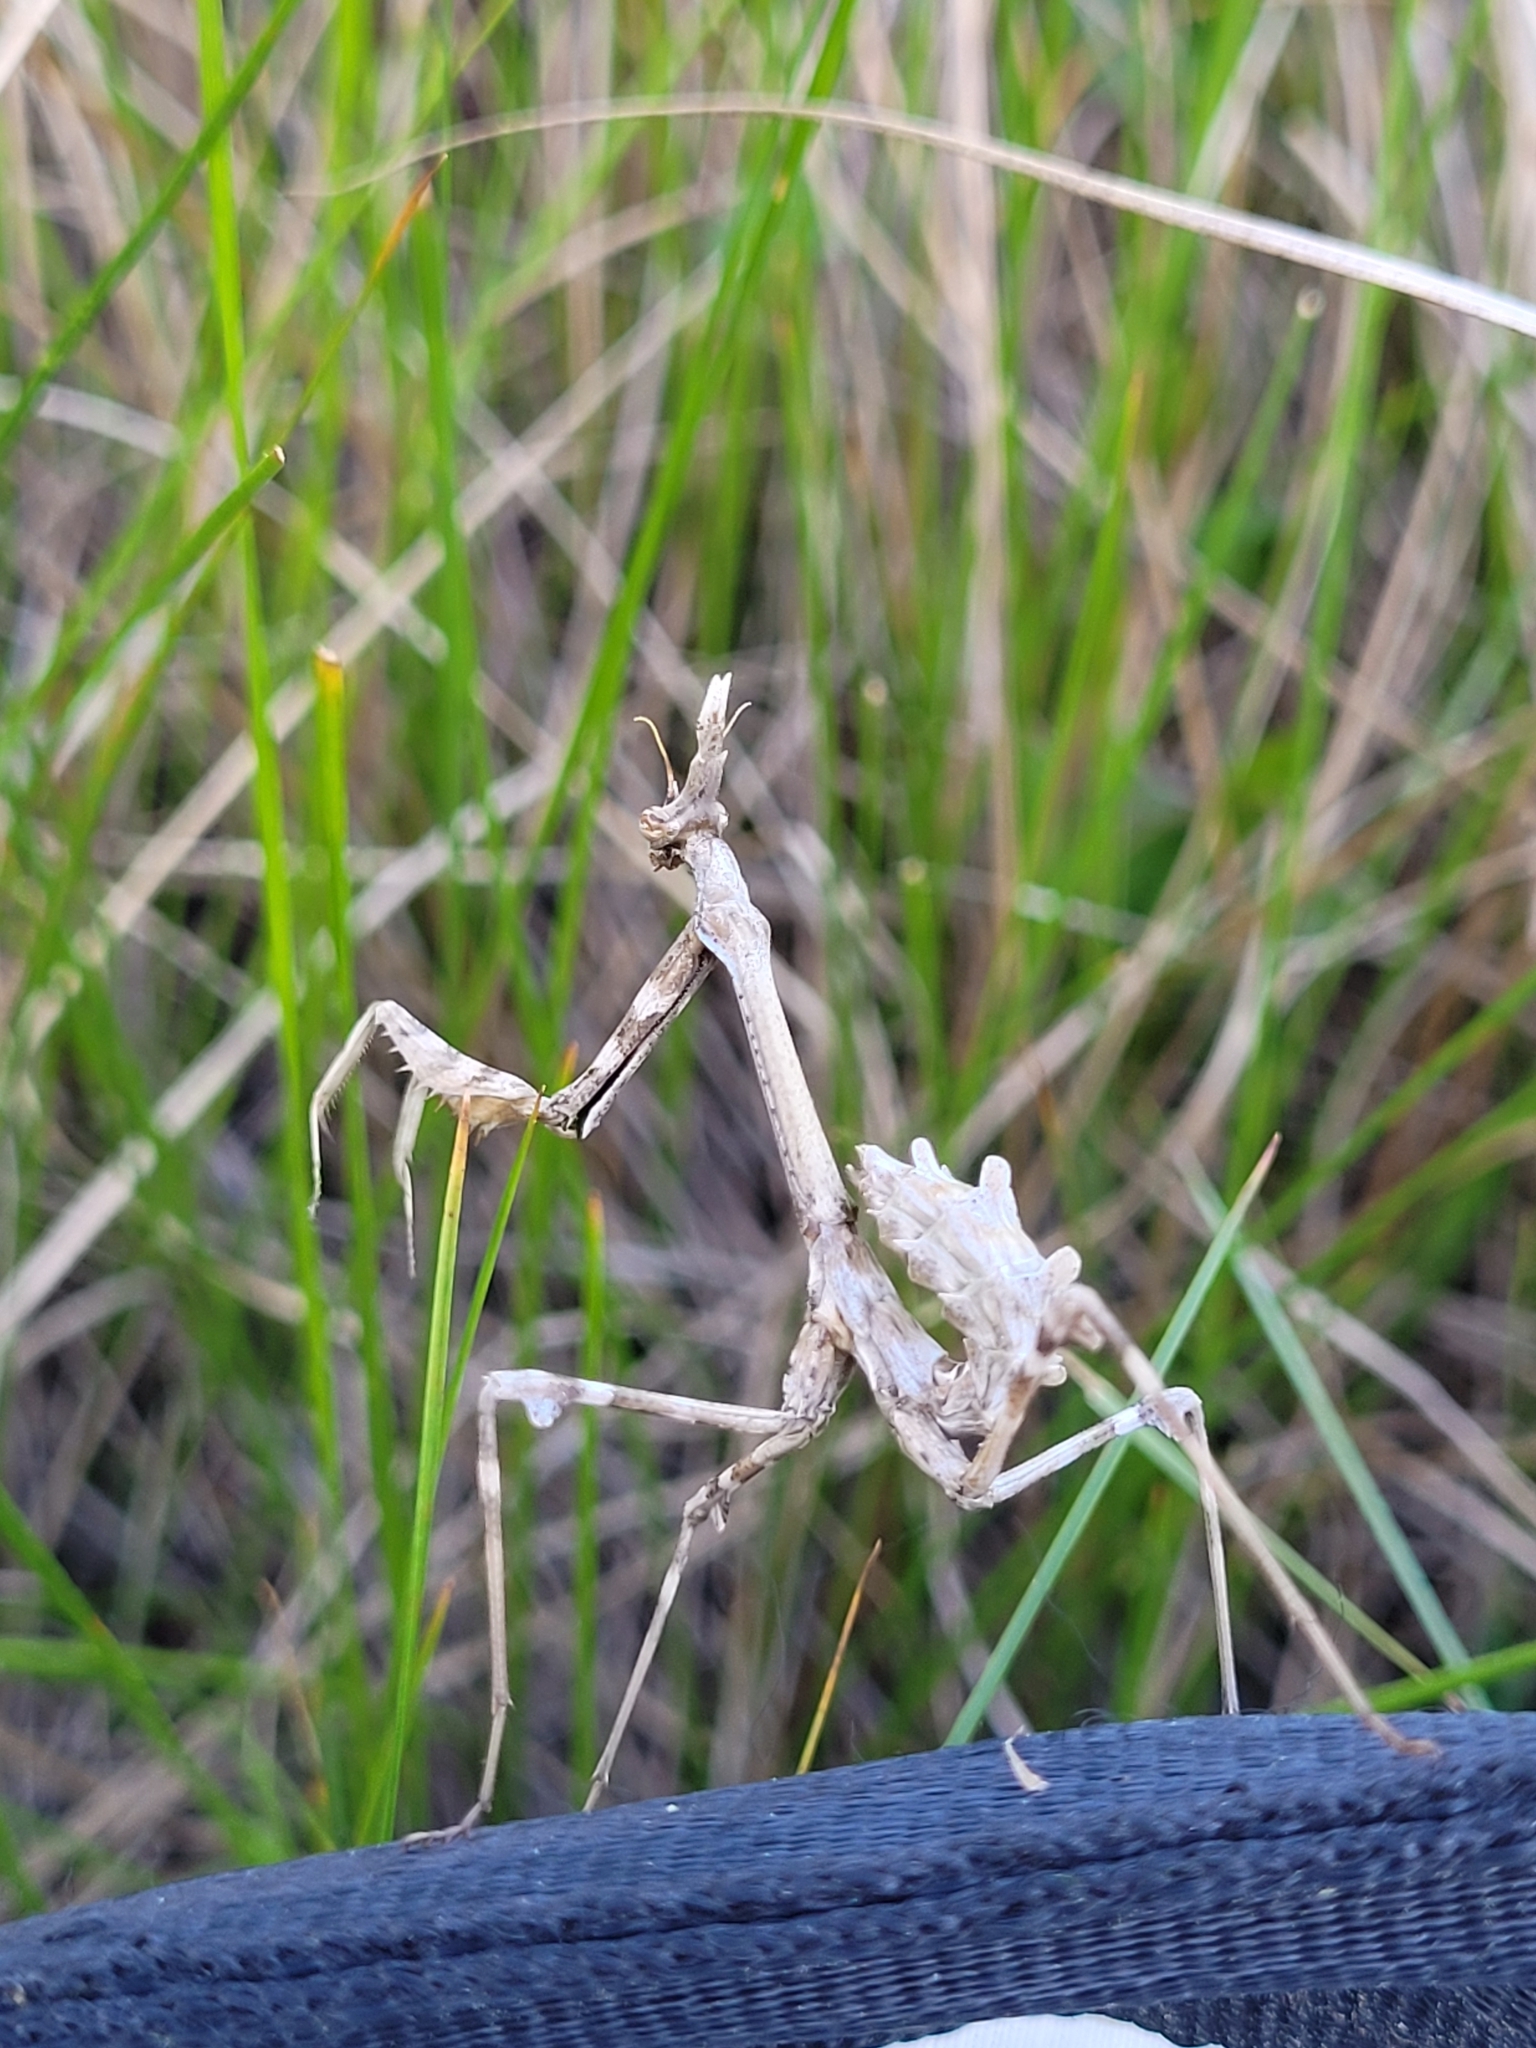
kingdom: Animalia
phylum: Arthropoda
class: Insecta
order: Mantodea
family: Empusidae
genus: Empusa
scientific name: Empusa pennata
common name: Conehead mantis
